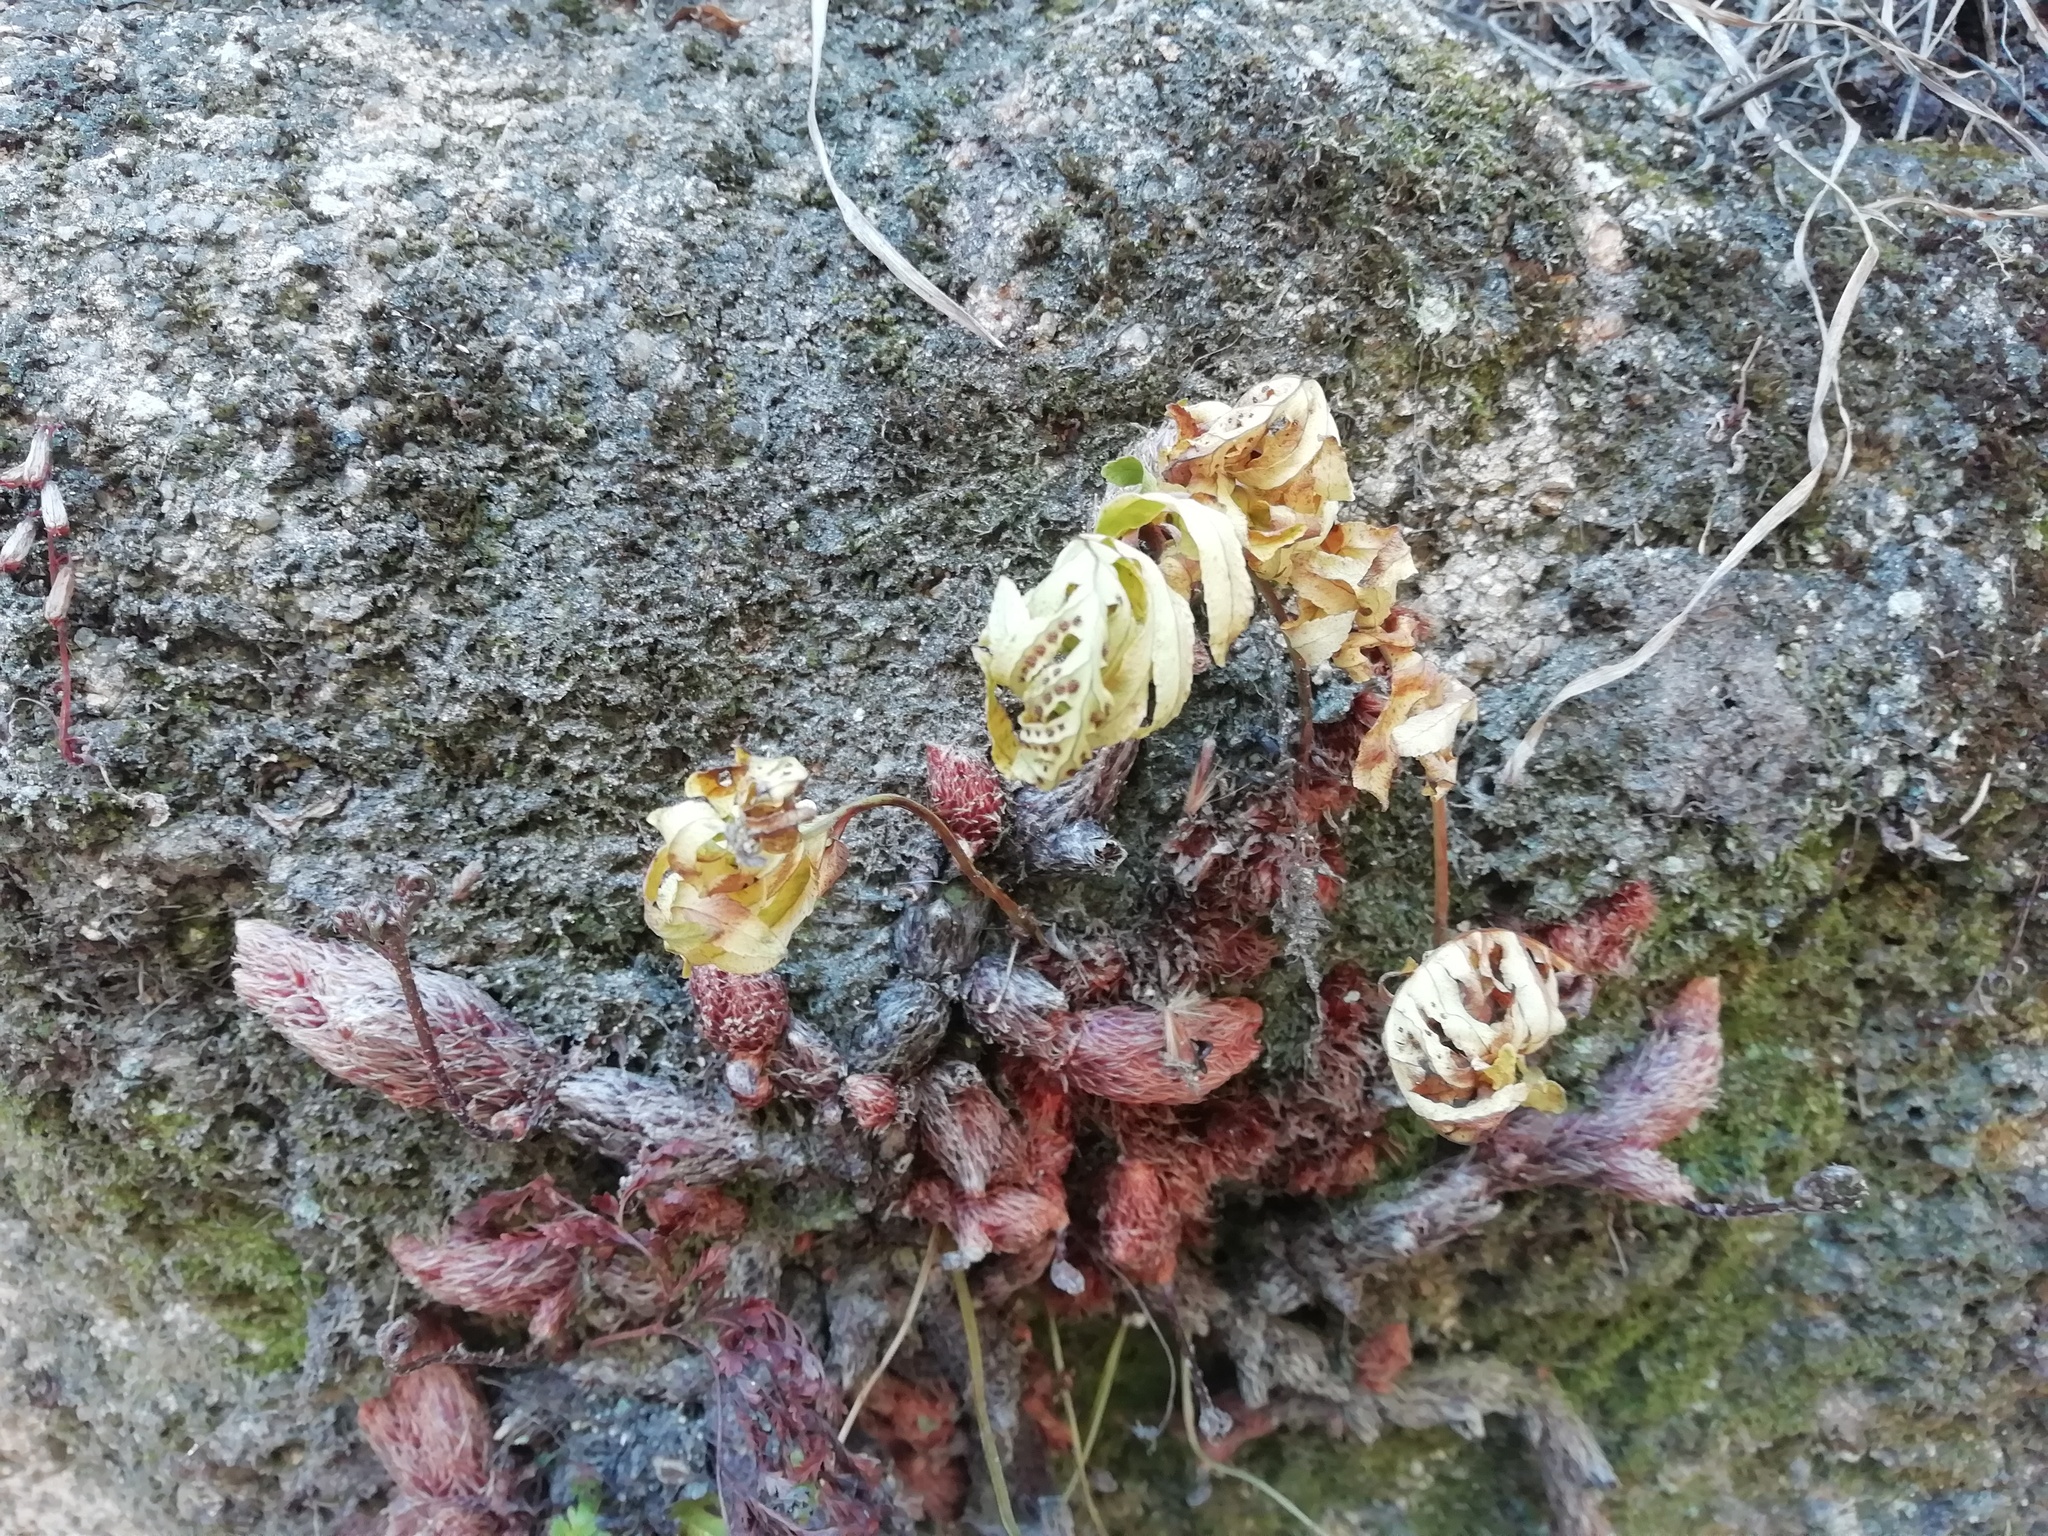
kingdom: Plantae
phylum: Tracheophyta
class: Polypodiopsida
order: Polypodiales
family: Polypodiaceae
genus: Polypodium
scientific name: Polypodium cambricum
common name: Southern polypody
